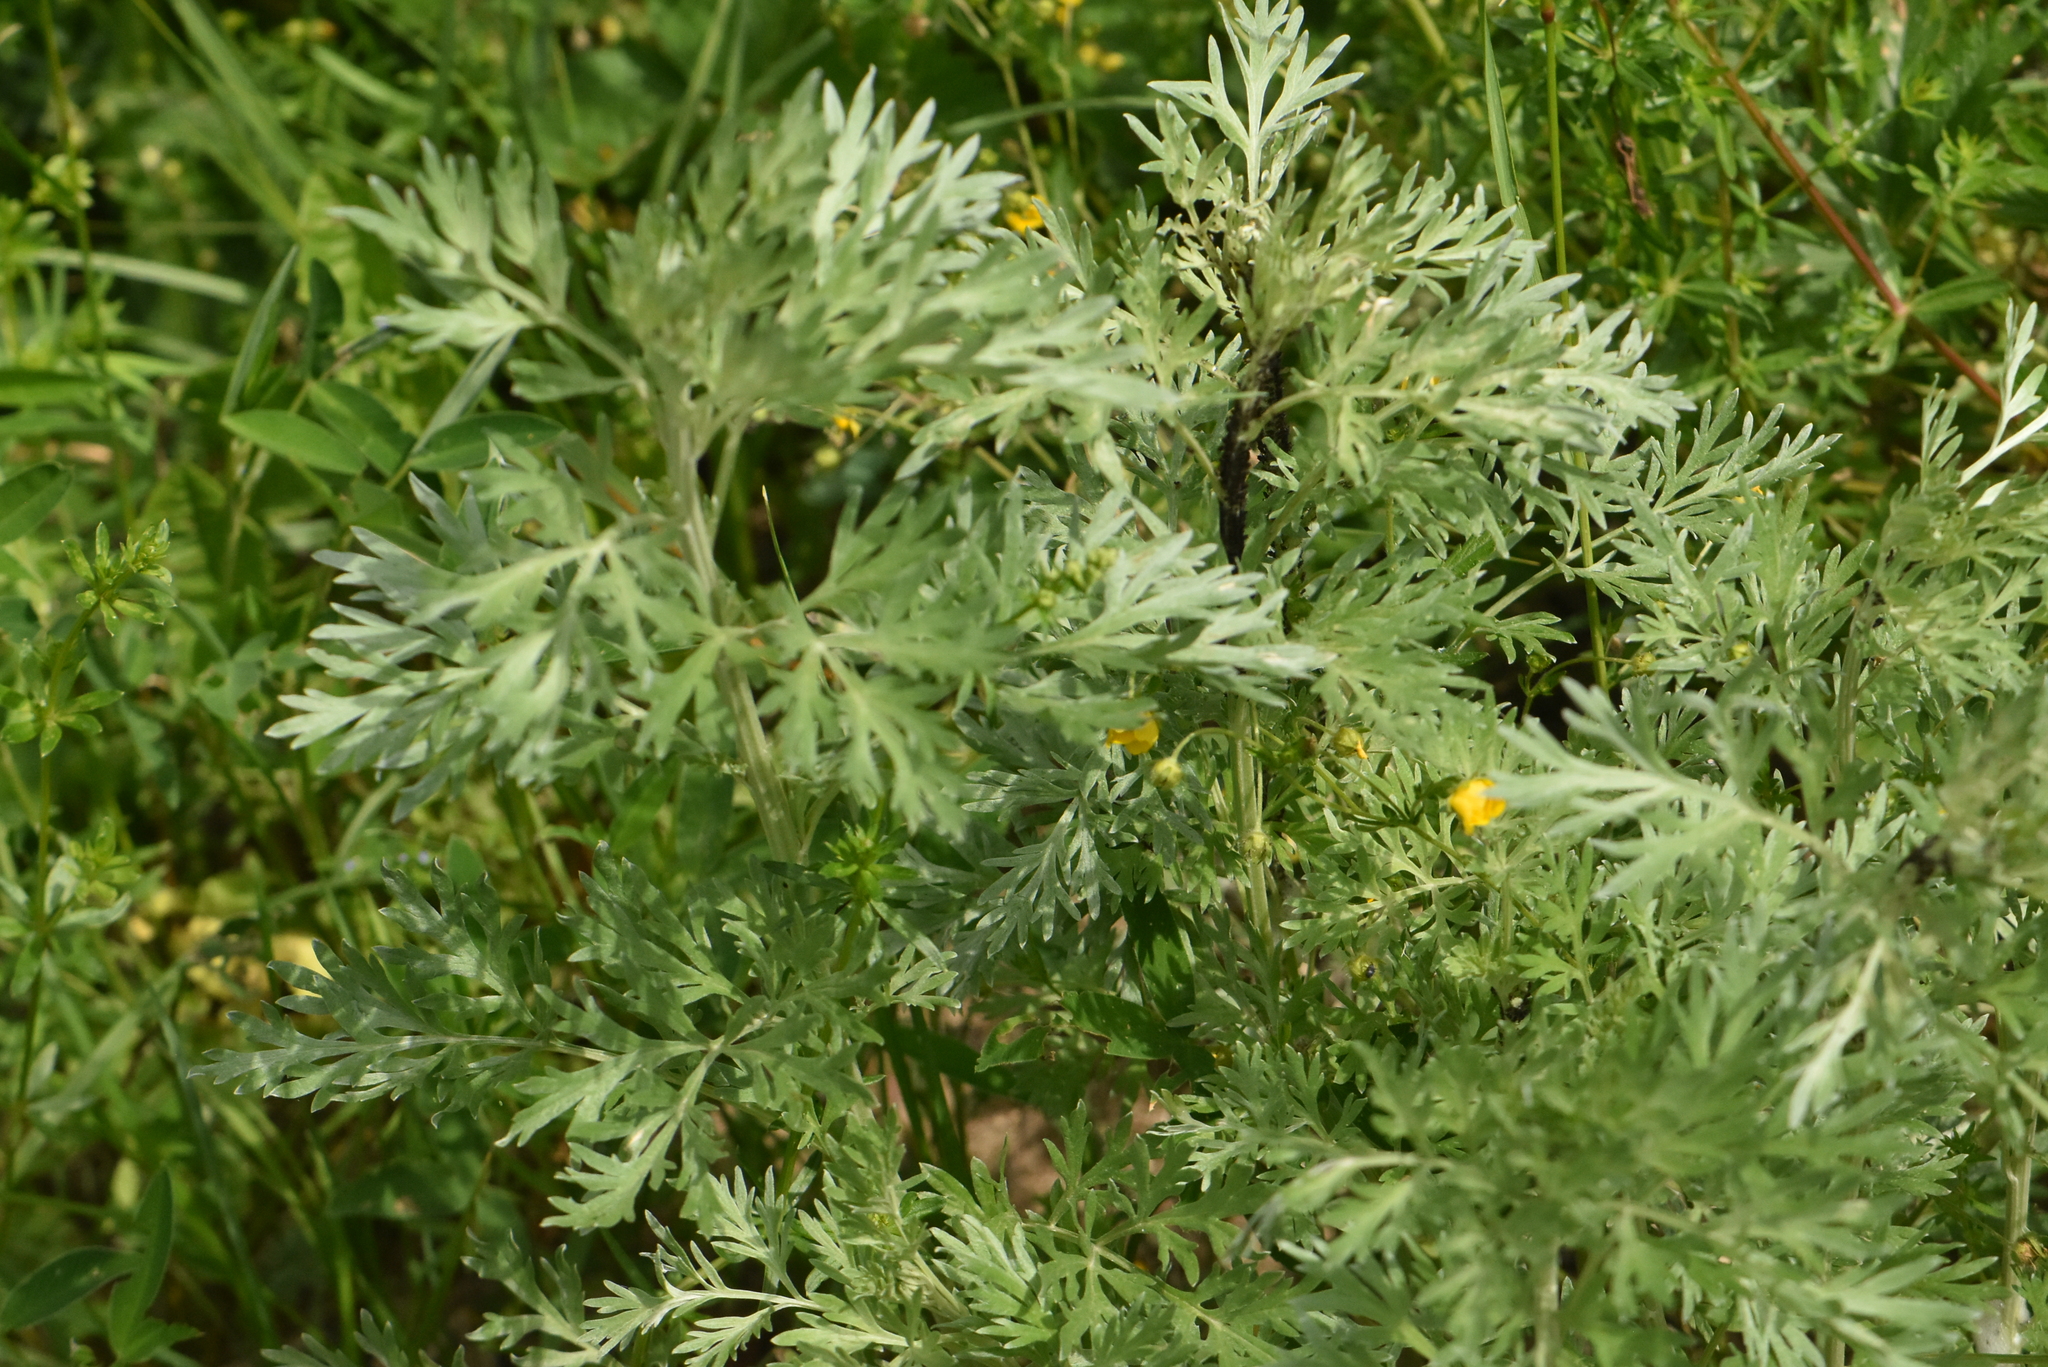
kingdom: Plantae
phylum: Tracheophyta
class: Magnoliopsida
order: Asterales
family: Asteraceae
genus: Artemisia
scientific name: Artemisia absinthium
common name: Wormwood
